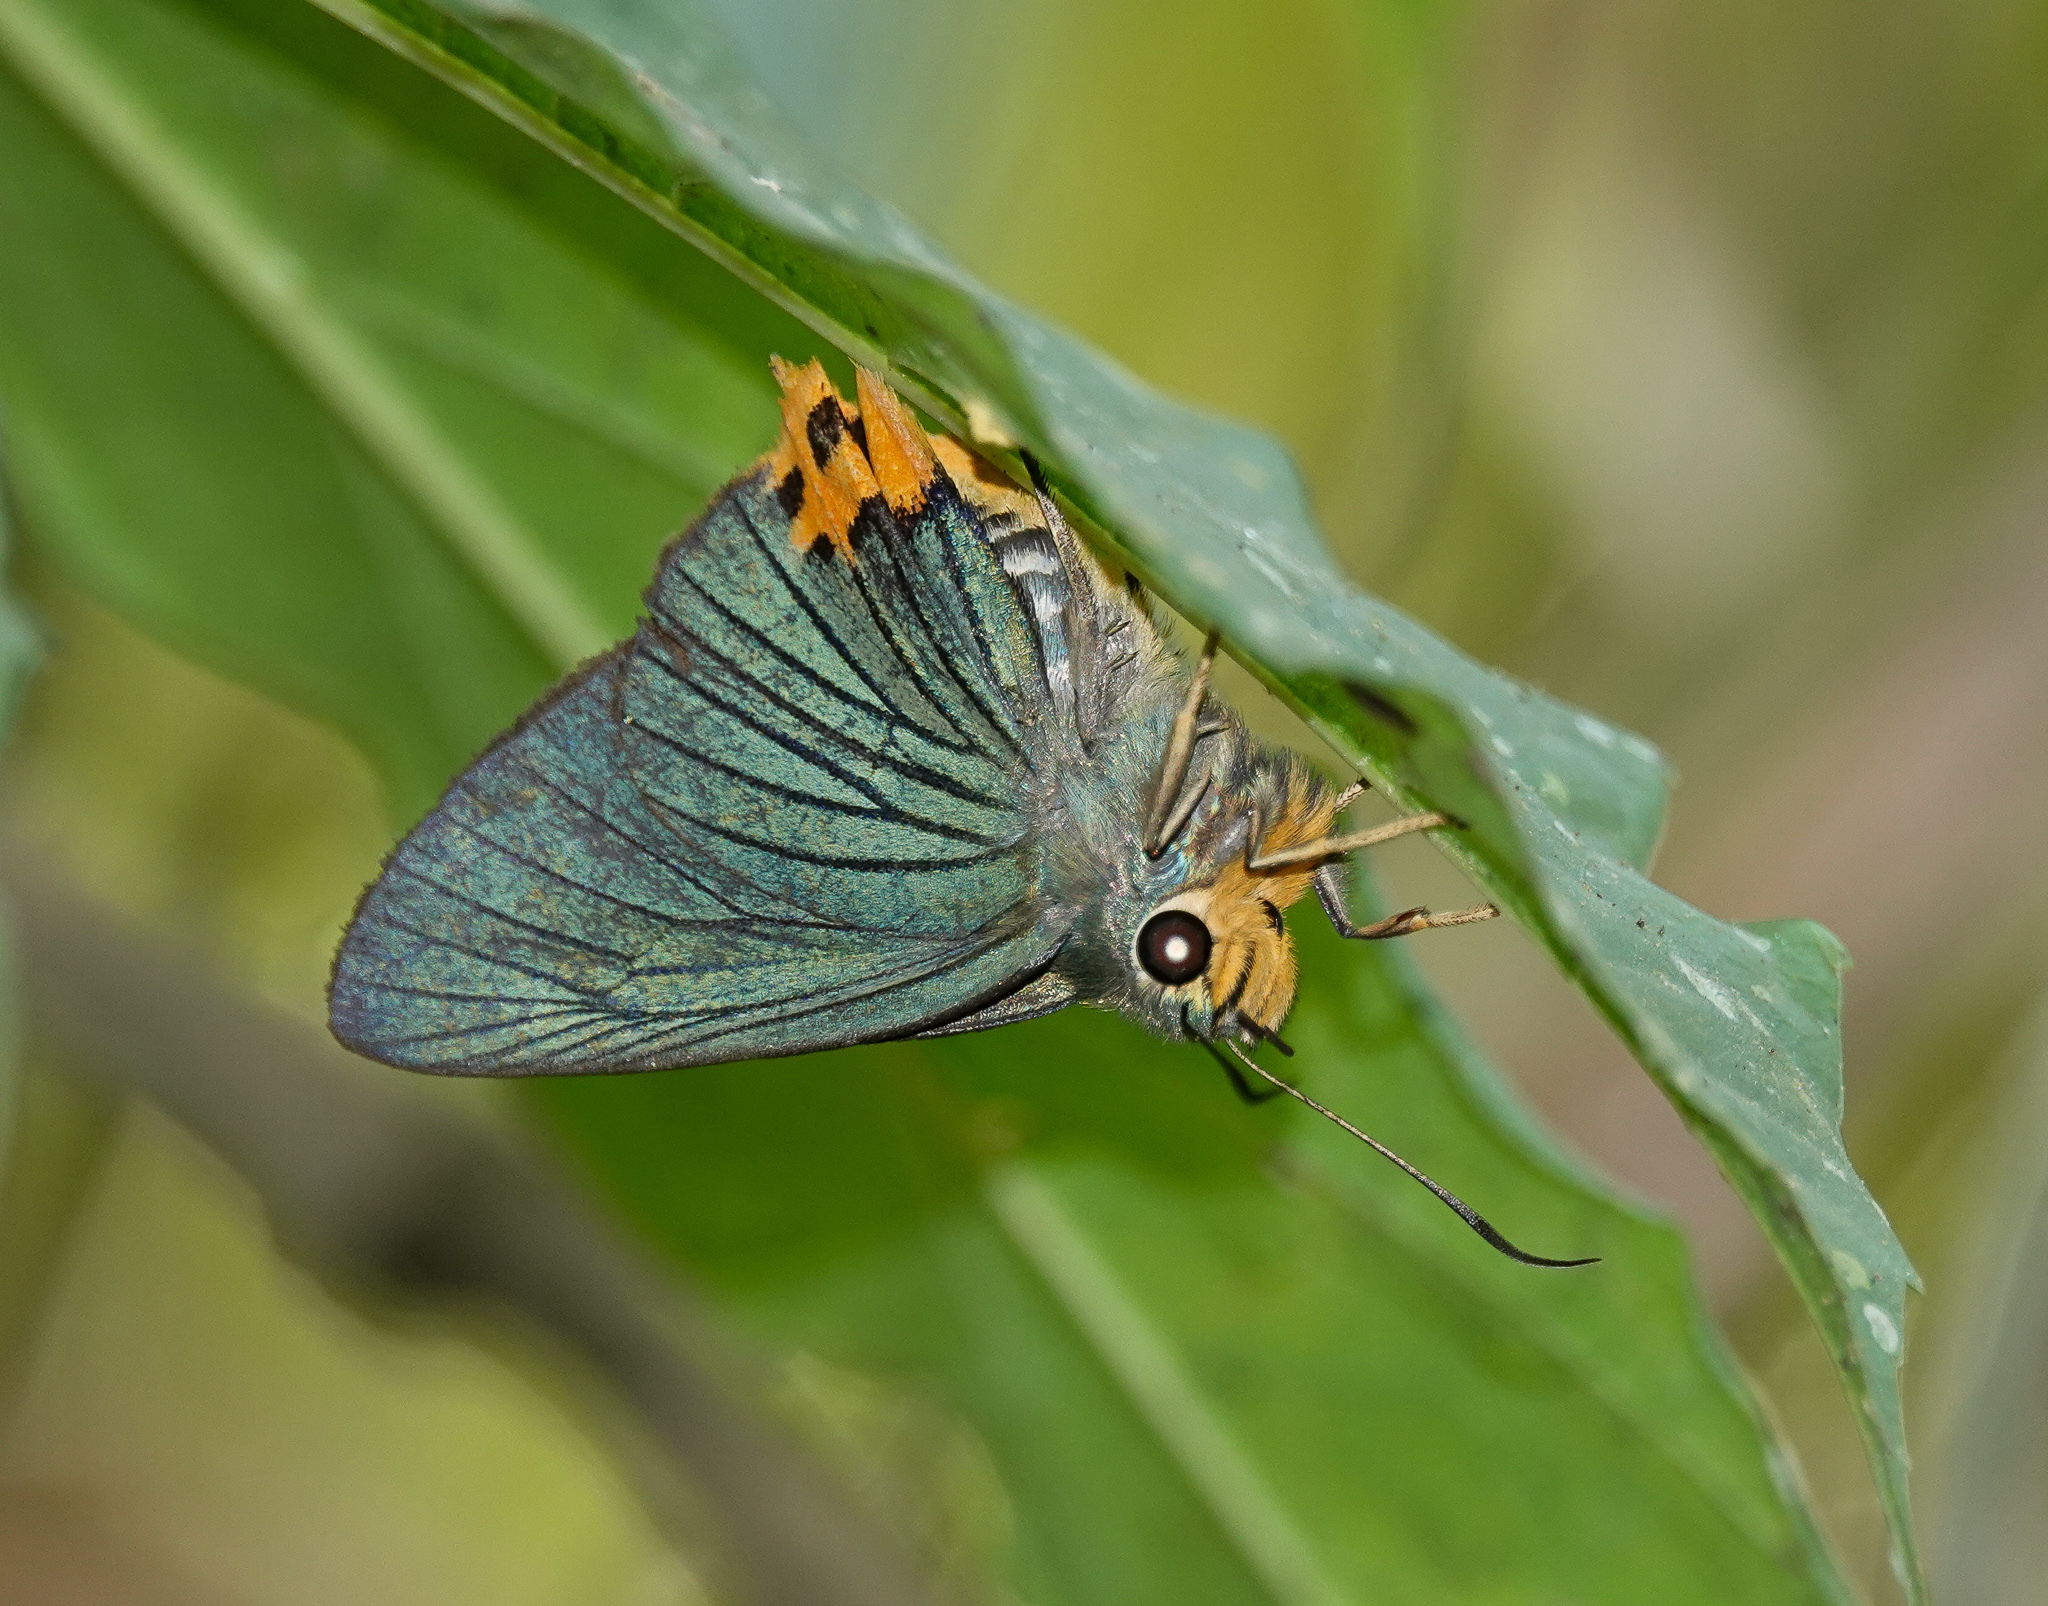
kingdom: Animalia
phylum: Arthropoda
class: Insecta
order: Lepidoptera
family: Hesperiidae
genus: Choaspes
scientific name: Choaspes benjaminii
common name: Indian awlking
